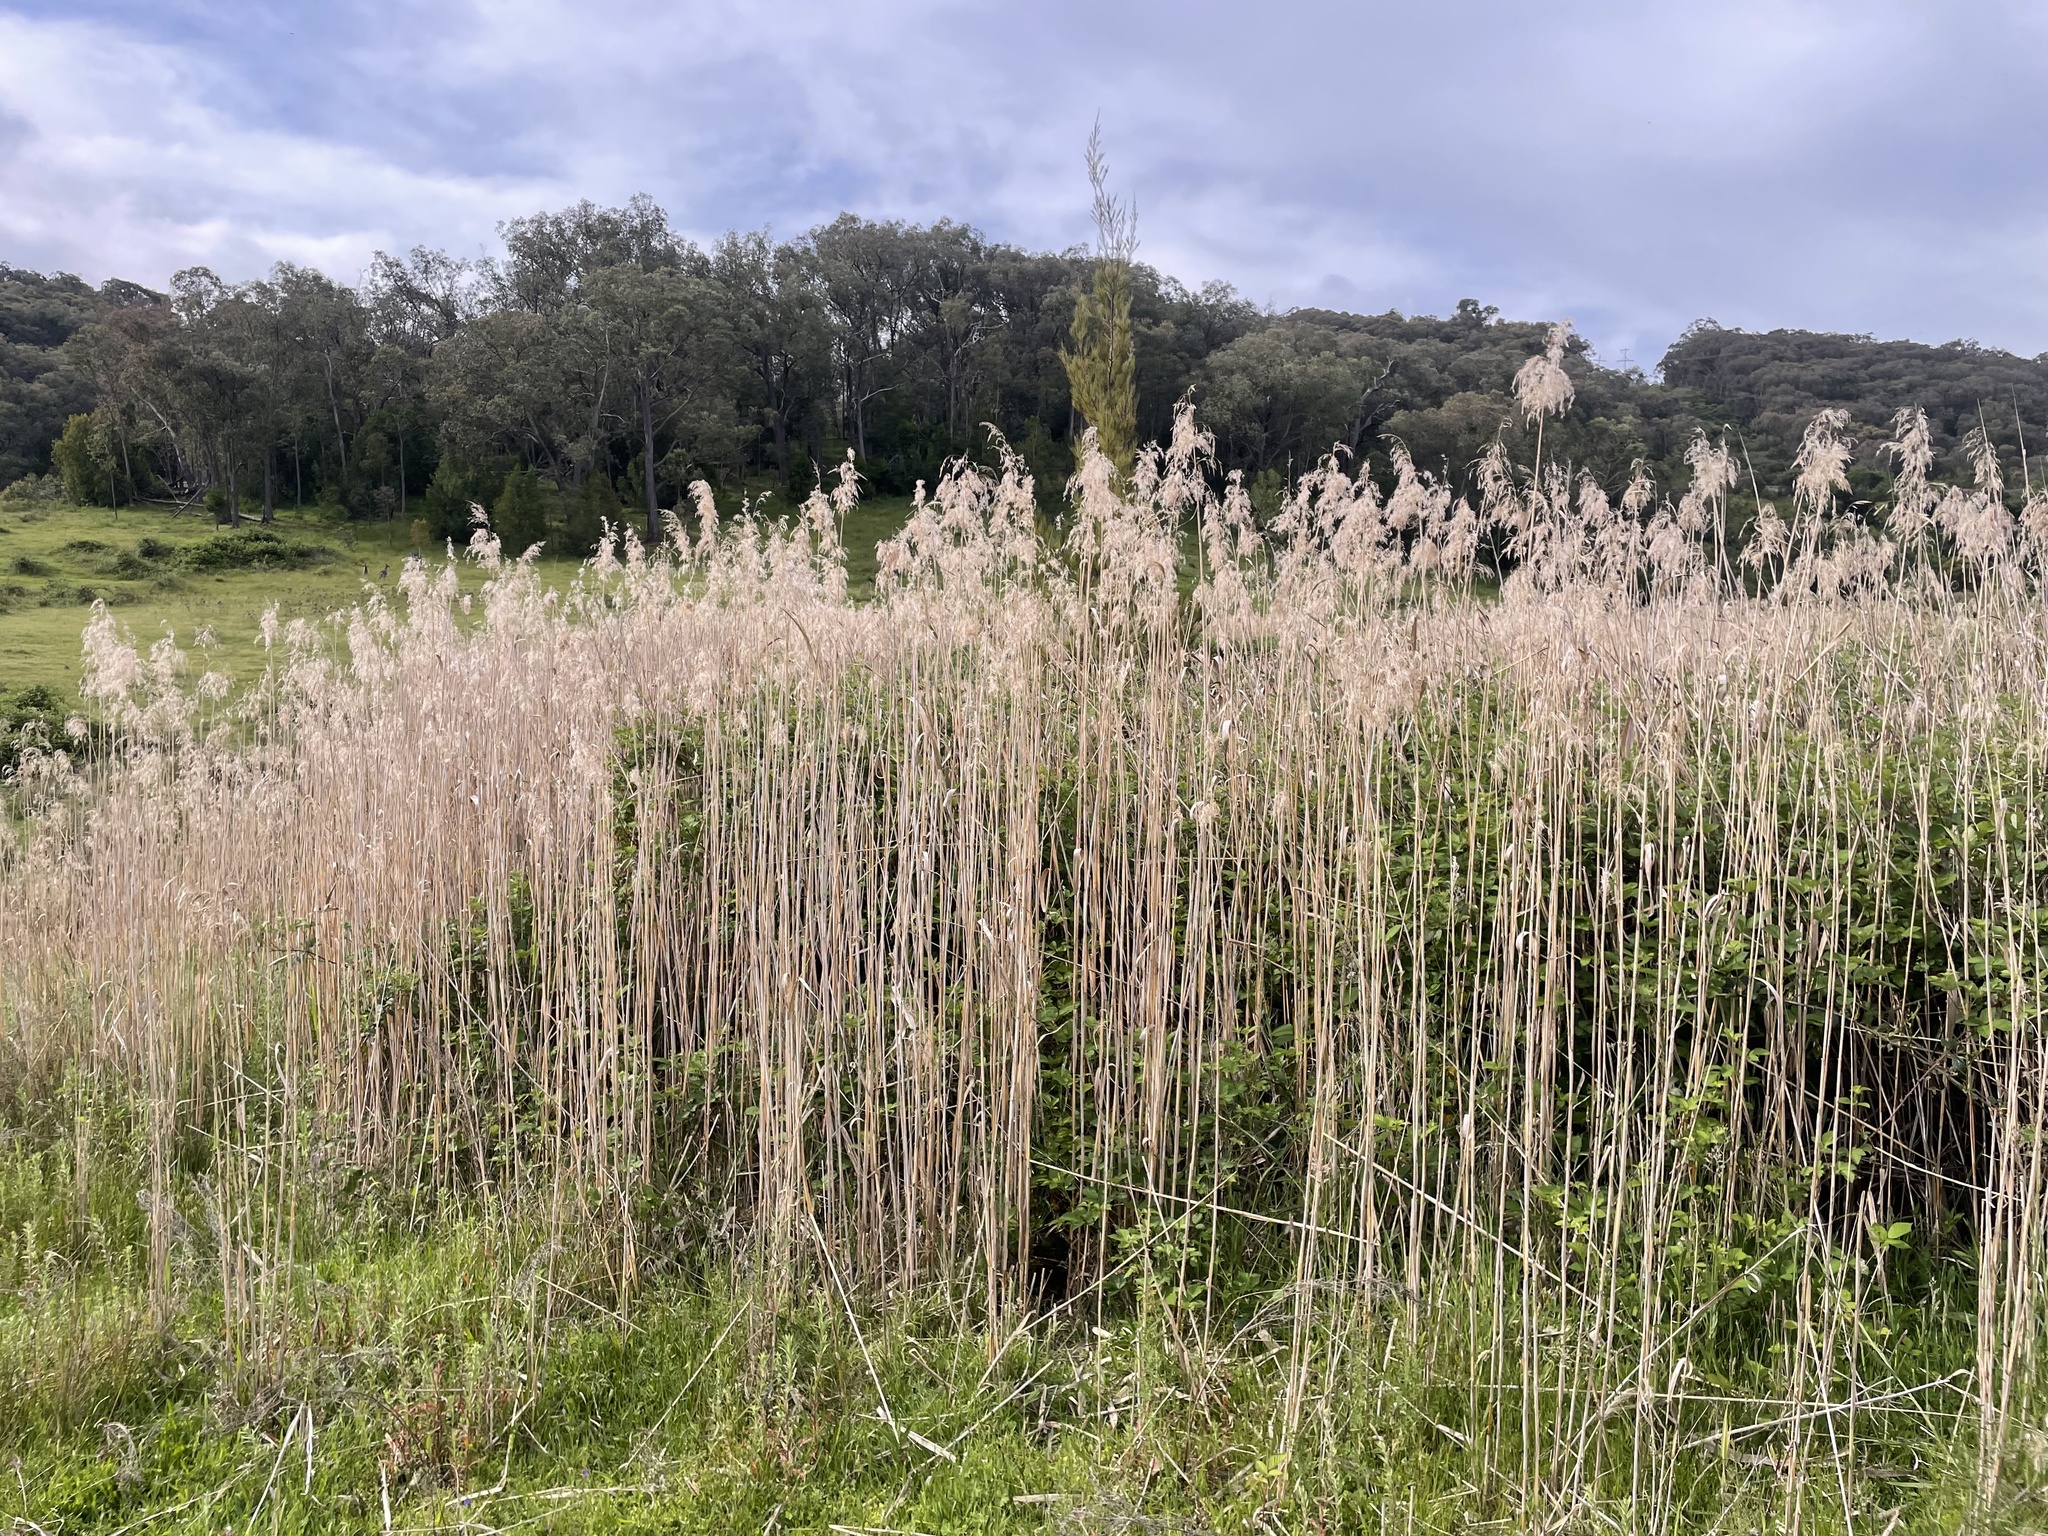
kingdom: Plantae
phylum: Tracheophyta
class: Liliopsida
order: Poales
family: Poaceae
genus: Phragmites
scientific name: Phragmites australis
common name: Common reed
